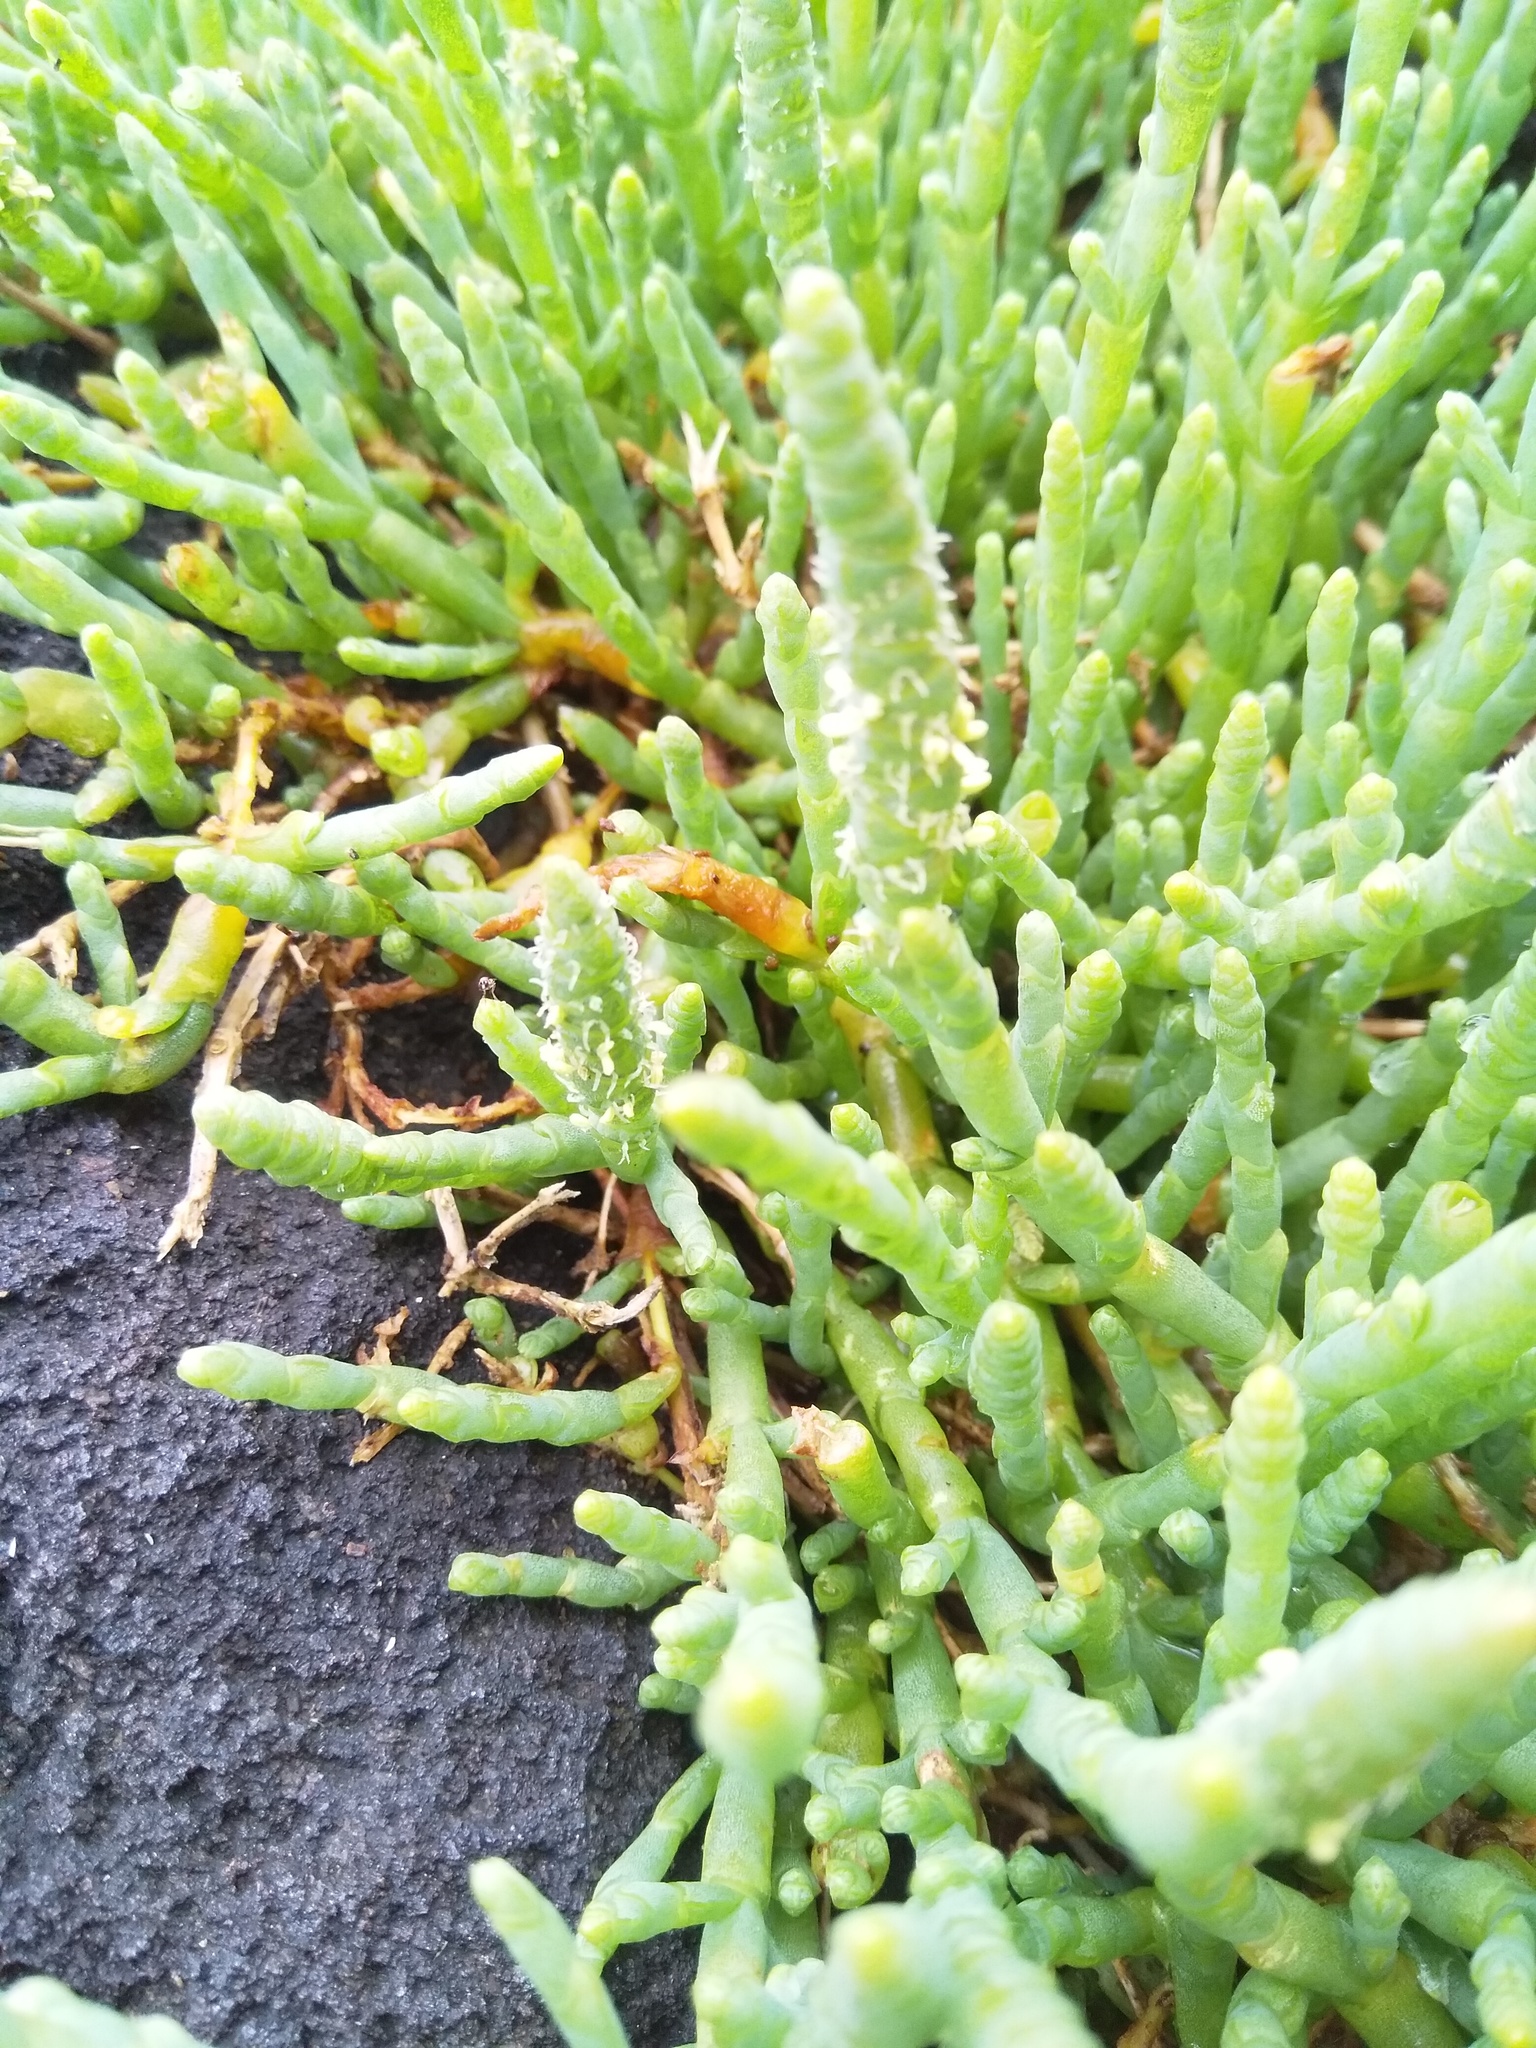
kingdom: Plantae
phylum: Tracheophyta
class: Magnoliopsida
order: Caryophyllales
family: Amaranthaceae
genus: Salicornia
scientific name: Salicornia quinqueflora
